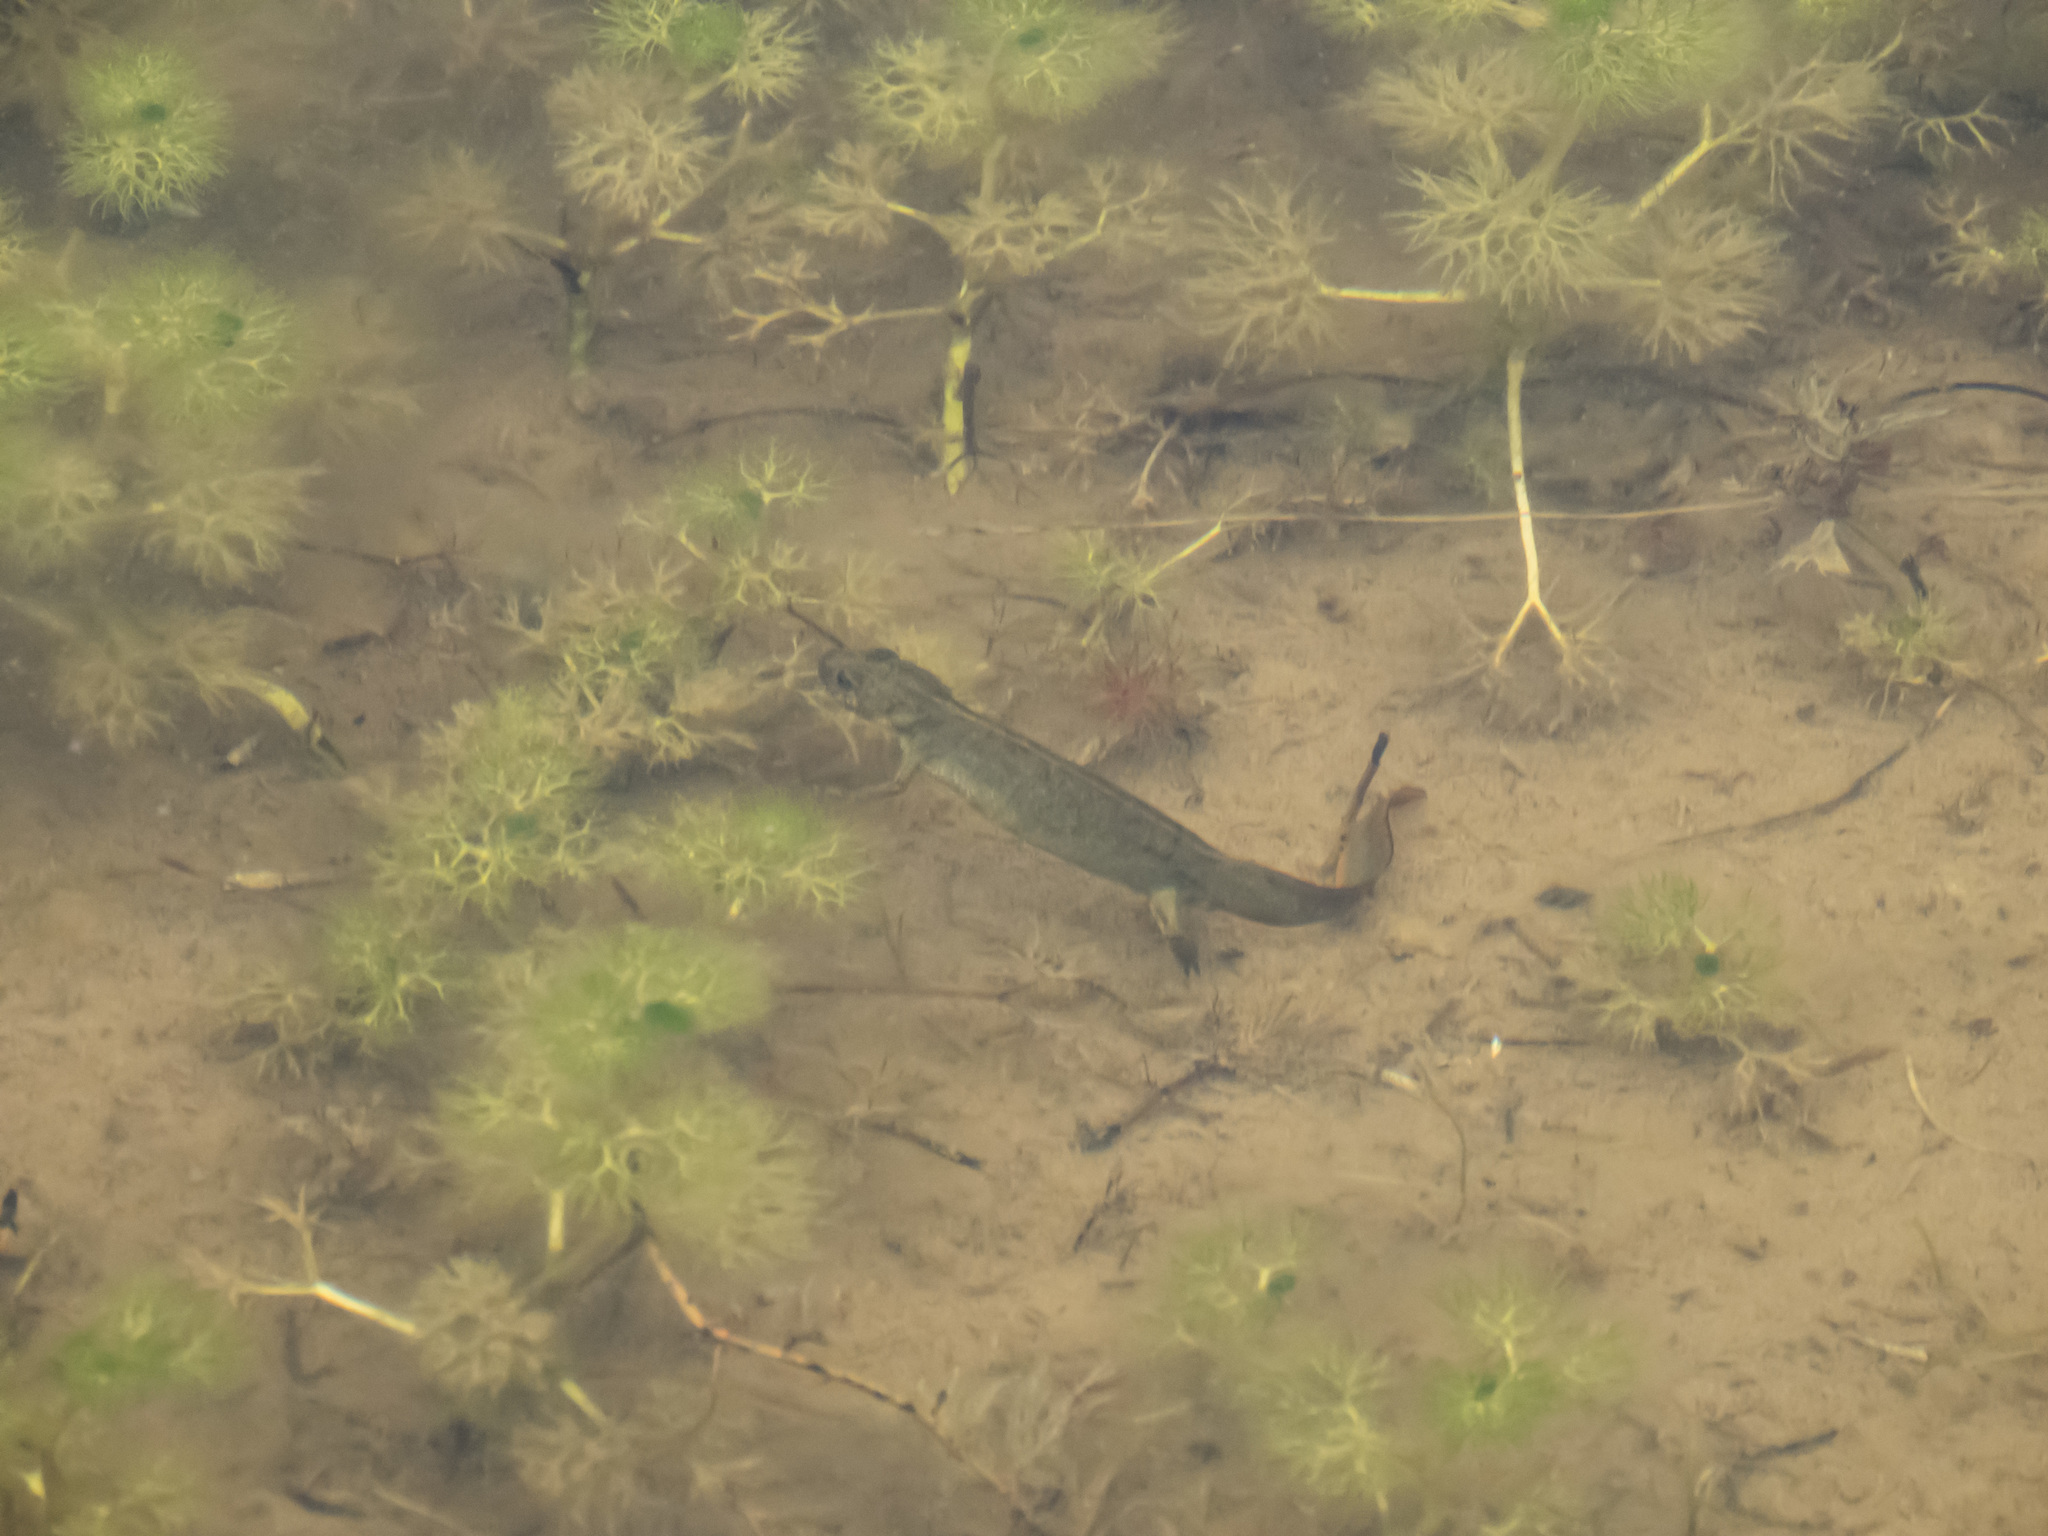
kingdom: Animalia
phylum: Chordata
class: Amphibia
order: Caudata
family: Salamandridae
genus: Triturus
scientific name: Triturus carnifex
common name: Italian crested newt
